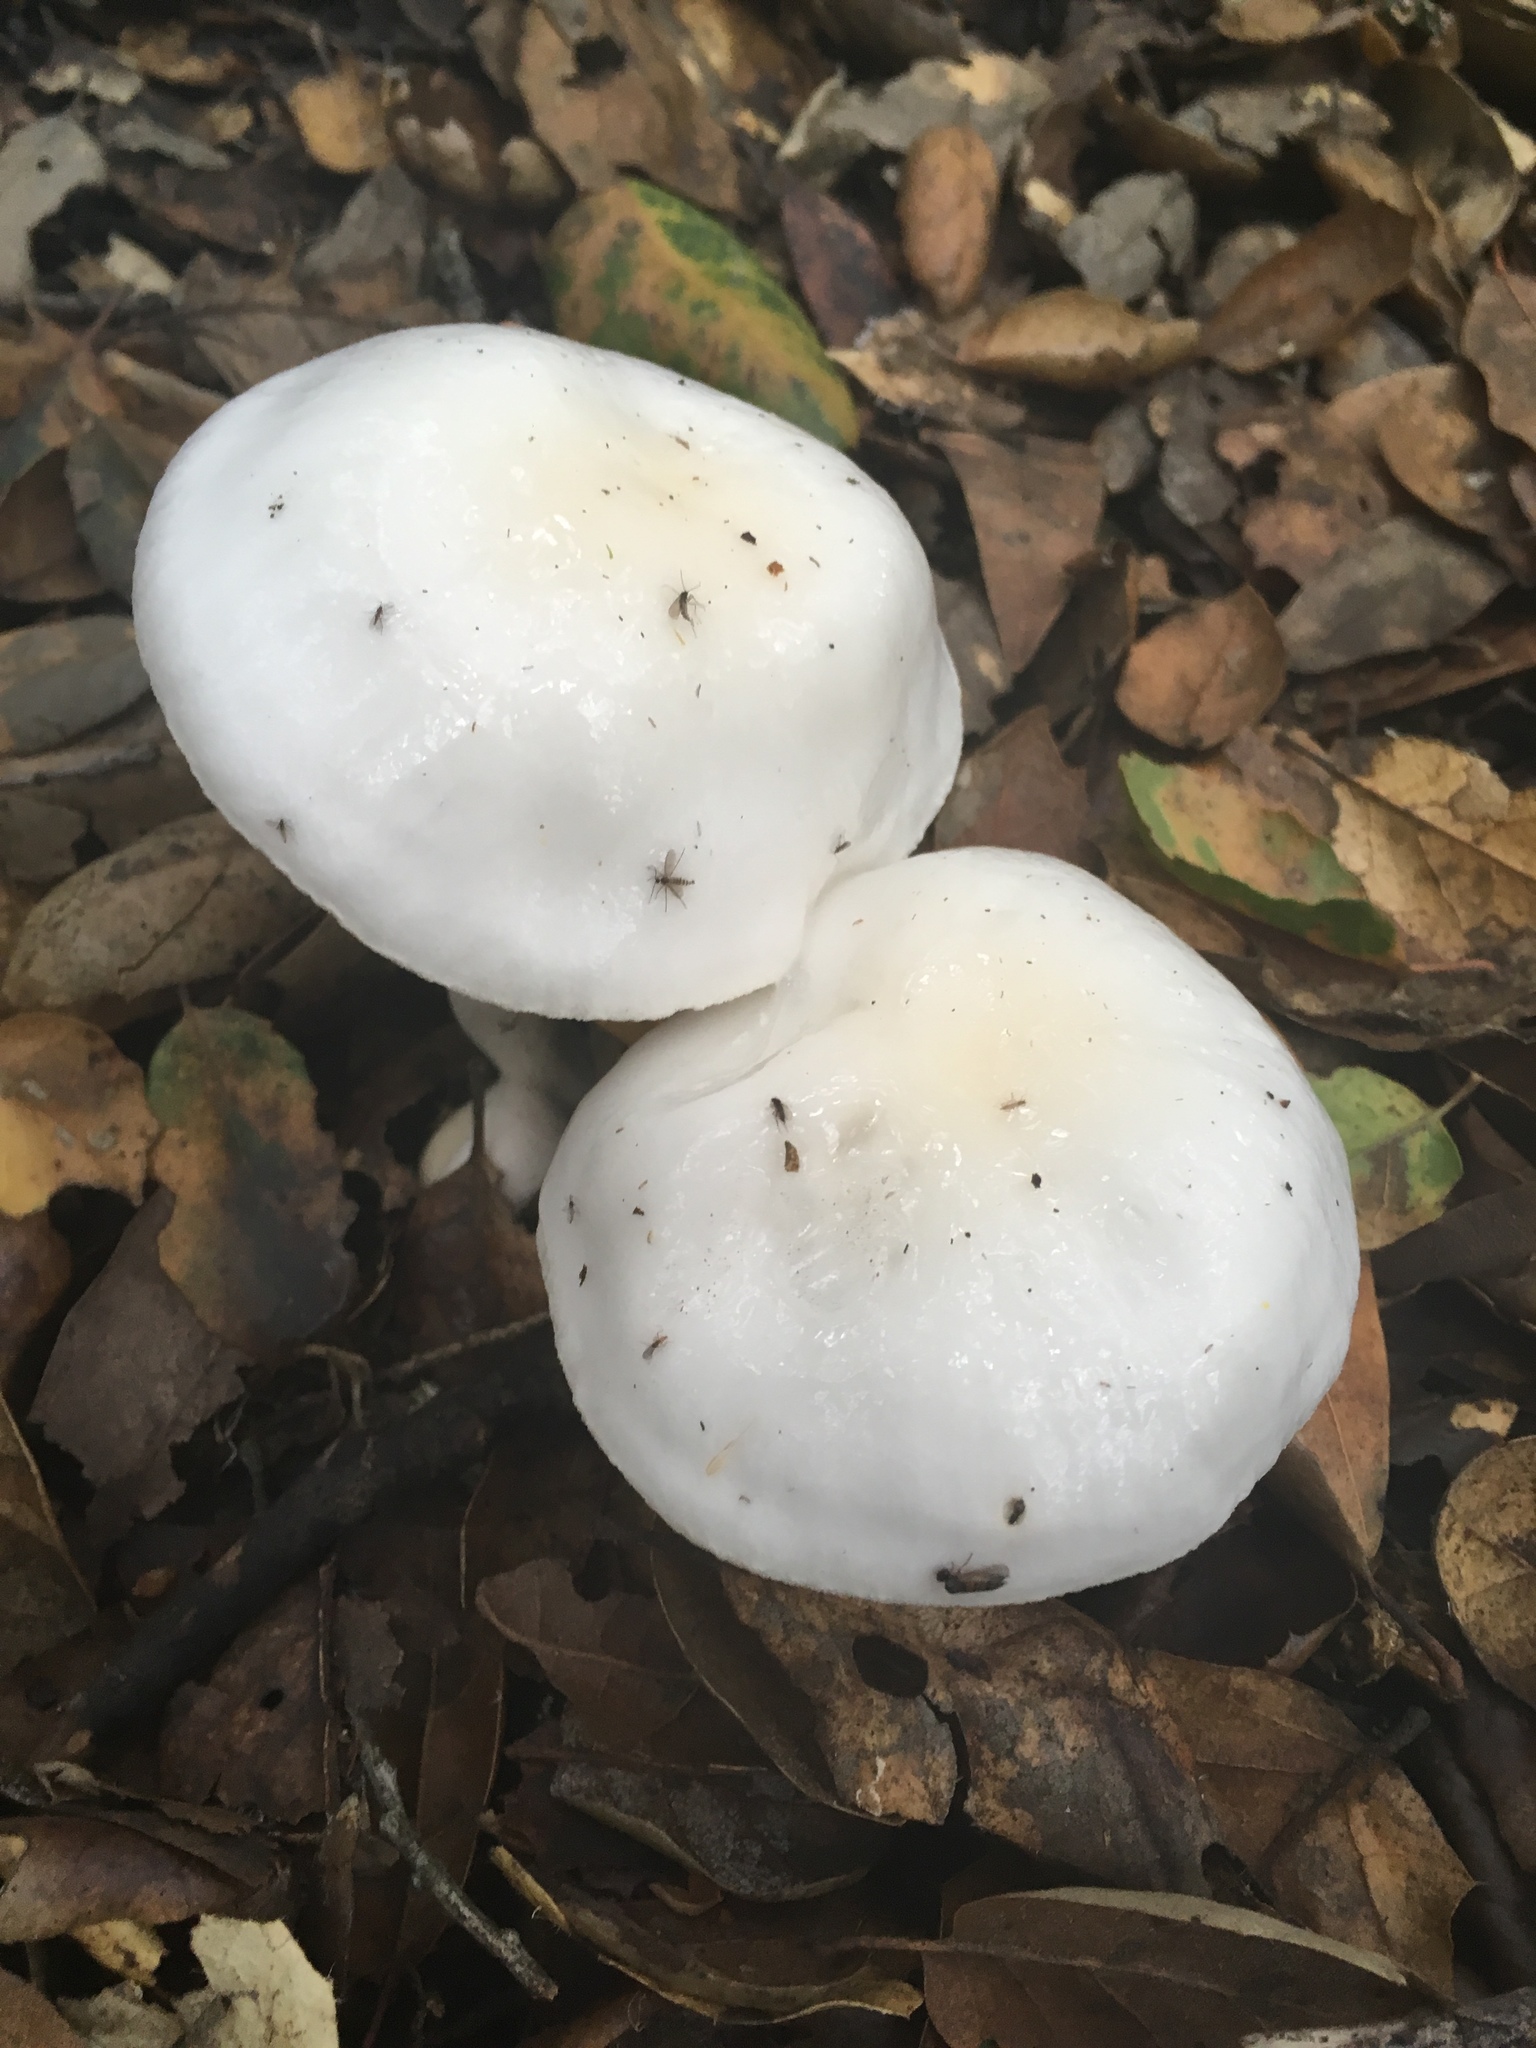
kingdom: Fungi
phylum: Basidiomycota
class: Agaricomycetes
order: Agaricales
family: Hygrophoraceae
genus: Hygrophorus
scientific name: Hygrophorus eburneus
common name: Ivory wax-cap
